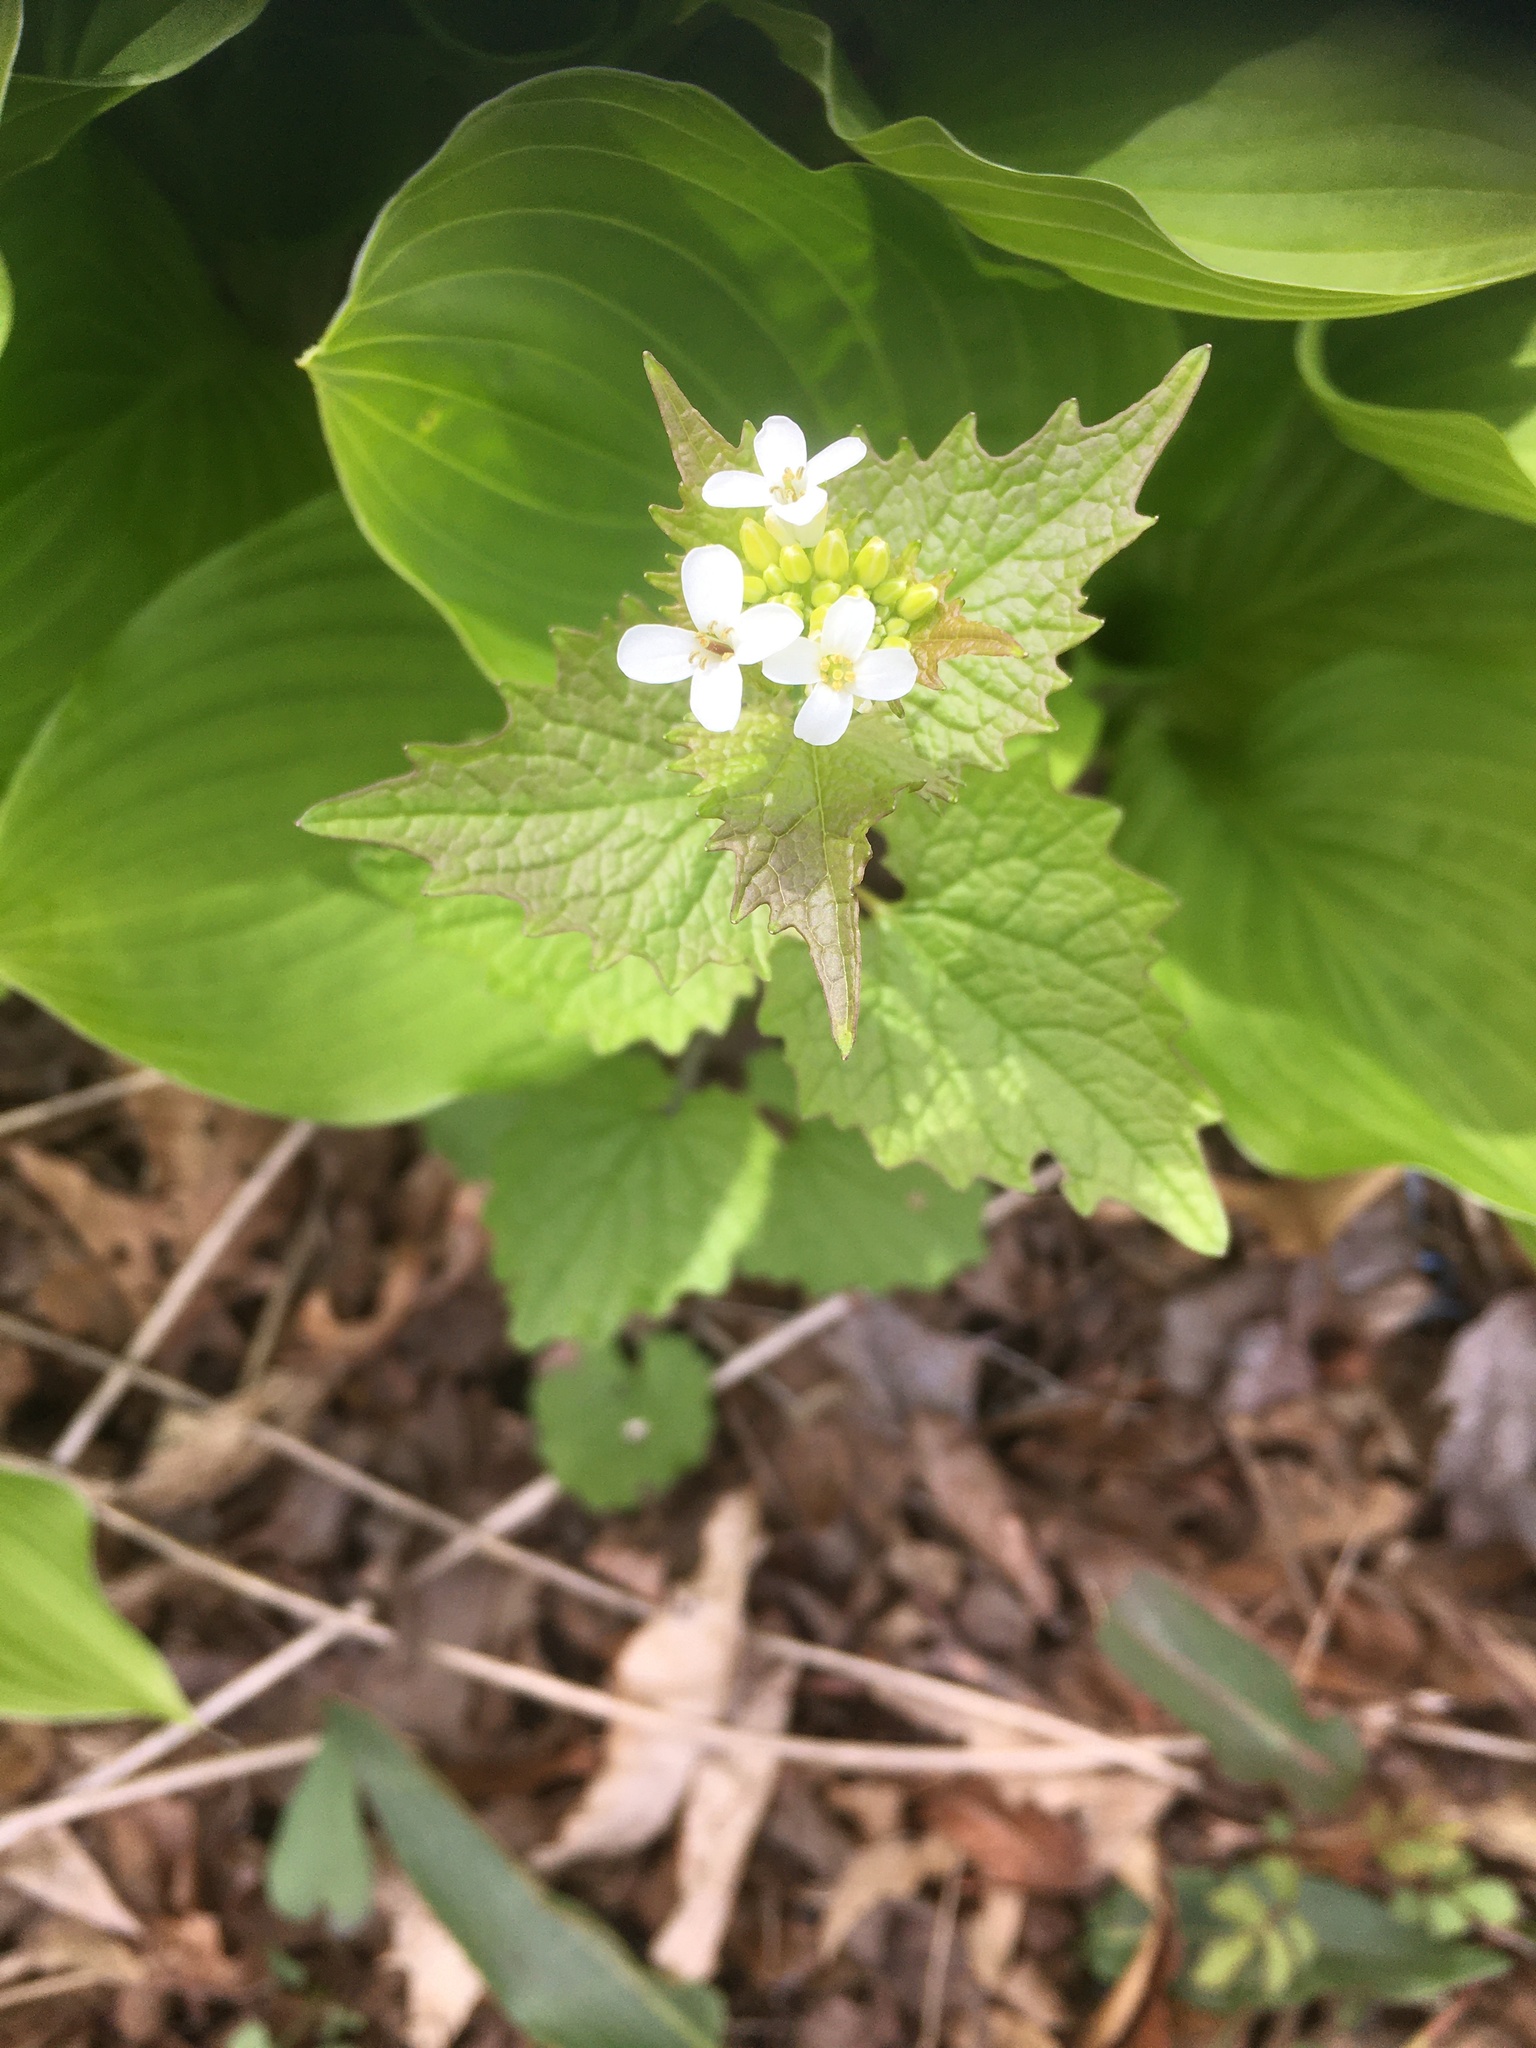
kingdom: Plantae
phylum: Tracheophyta
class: Magnoliopsida
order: Brassicales
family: Brassicaceae
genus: Alliaria
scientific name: Alliaria petiolata
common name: Garlic mustard
